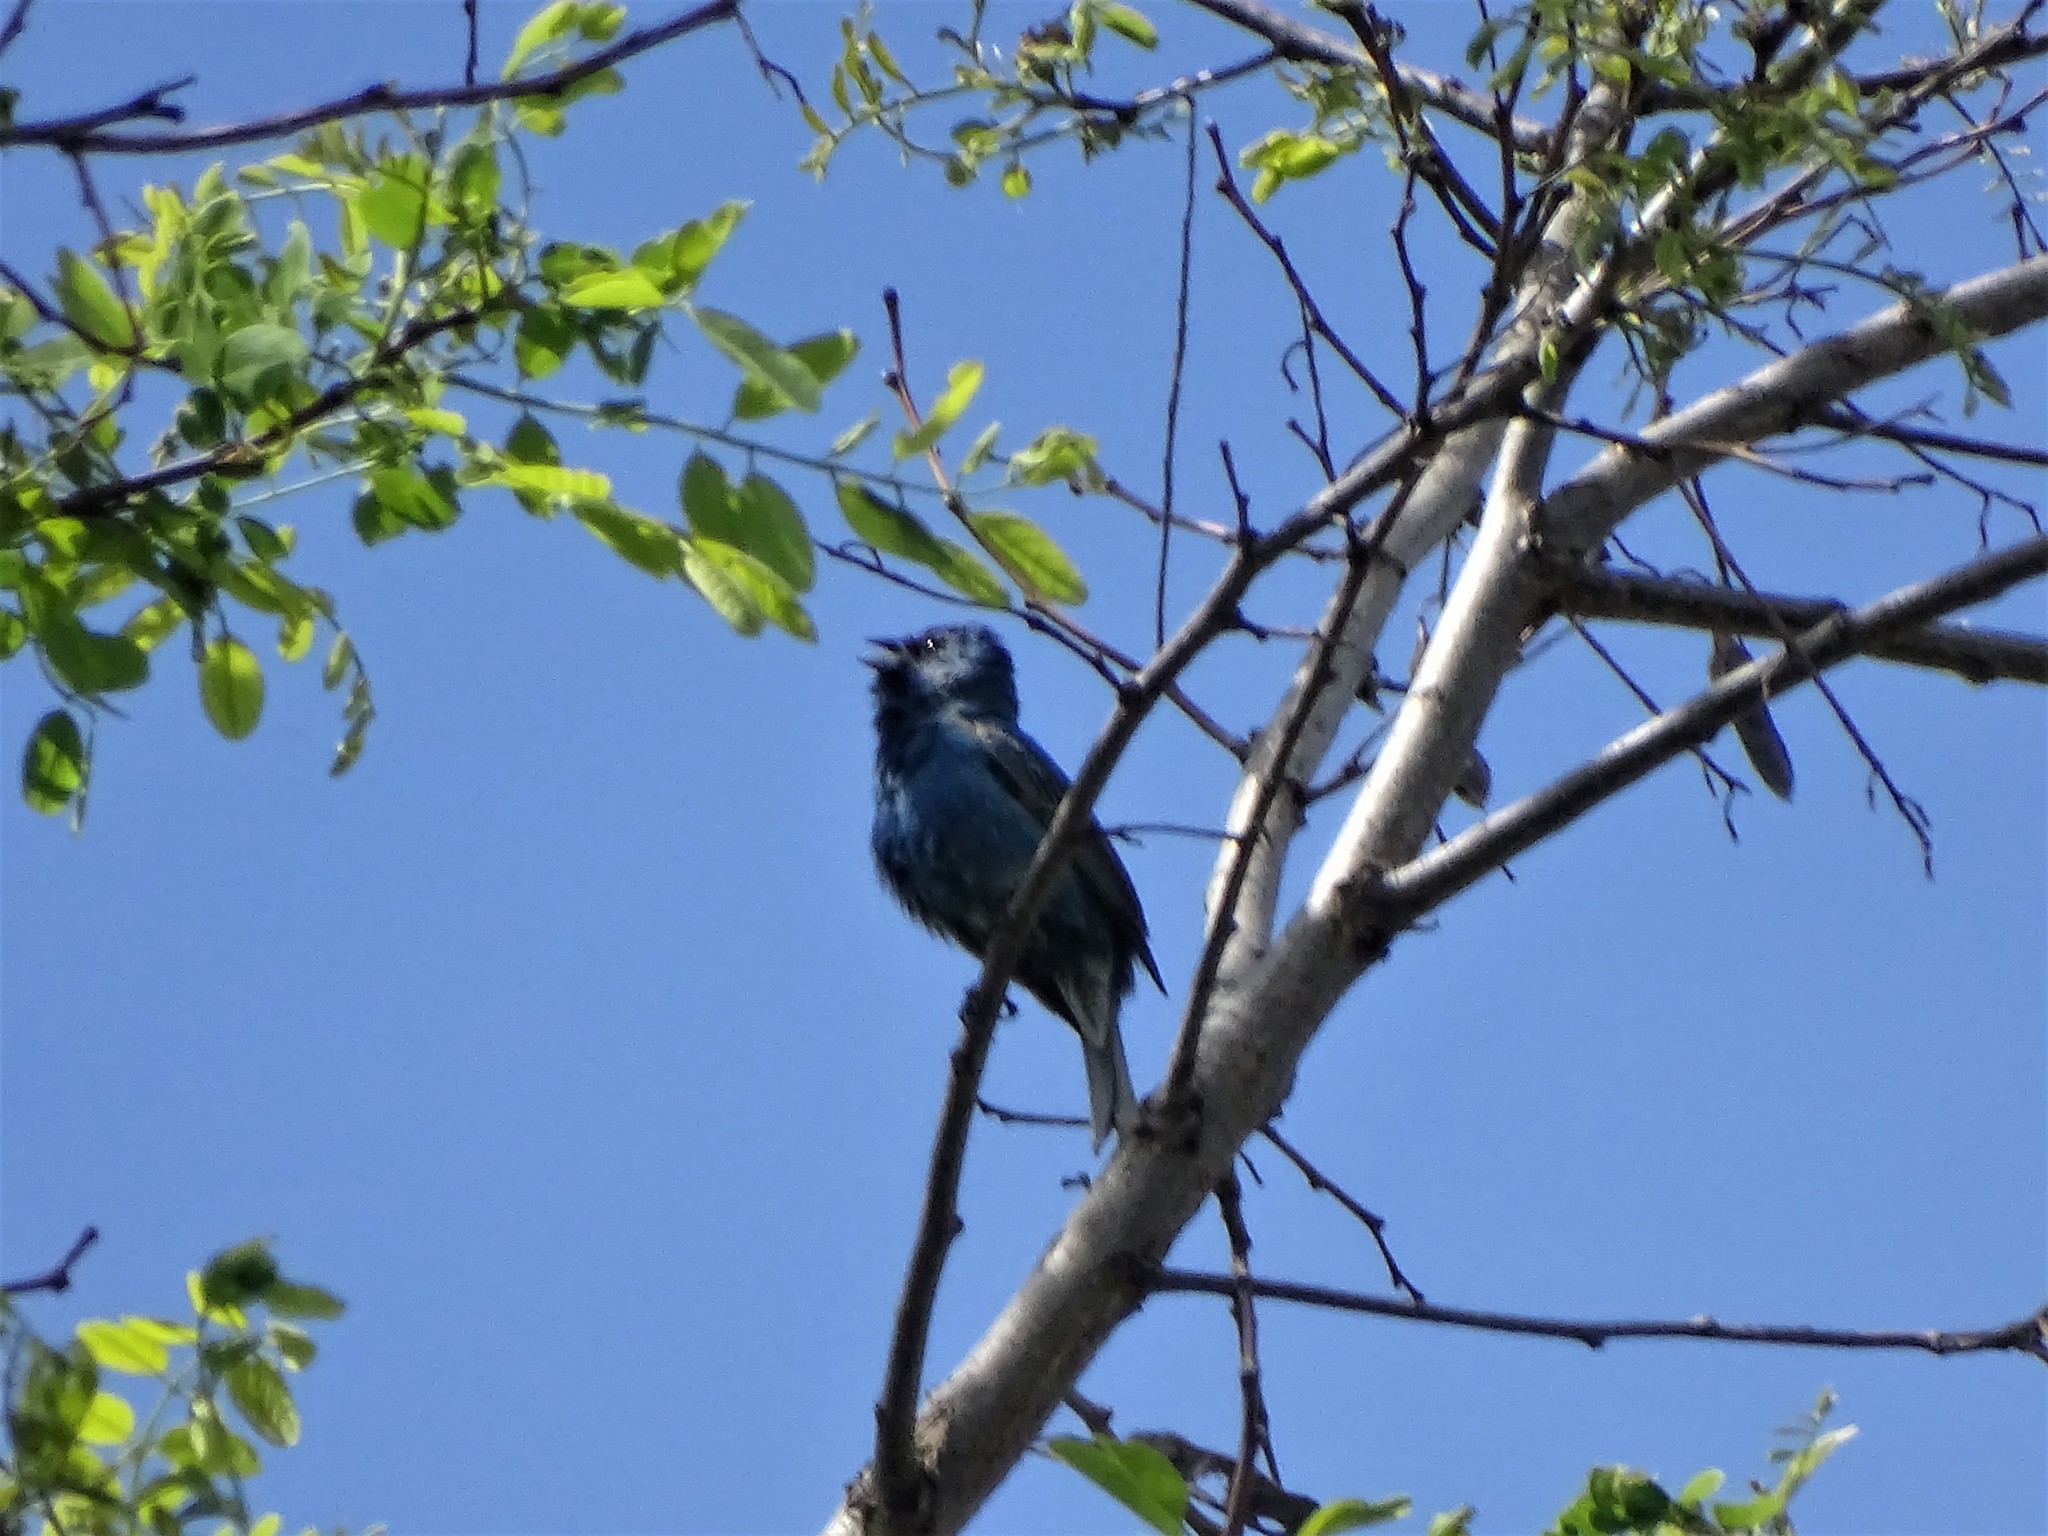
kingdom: Animalia
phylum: Chordata
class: Aves
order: Passeriformes
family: Cardinalidae
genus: Passerina
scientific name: Passerina cyanea
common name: Indigo bunting
